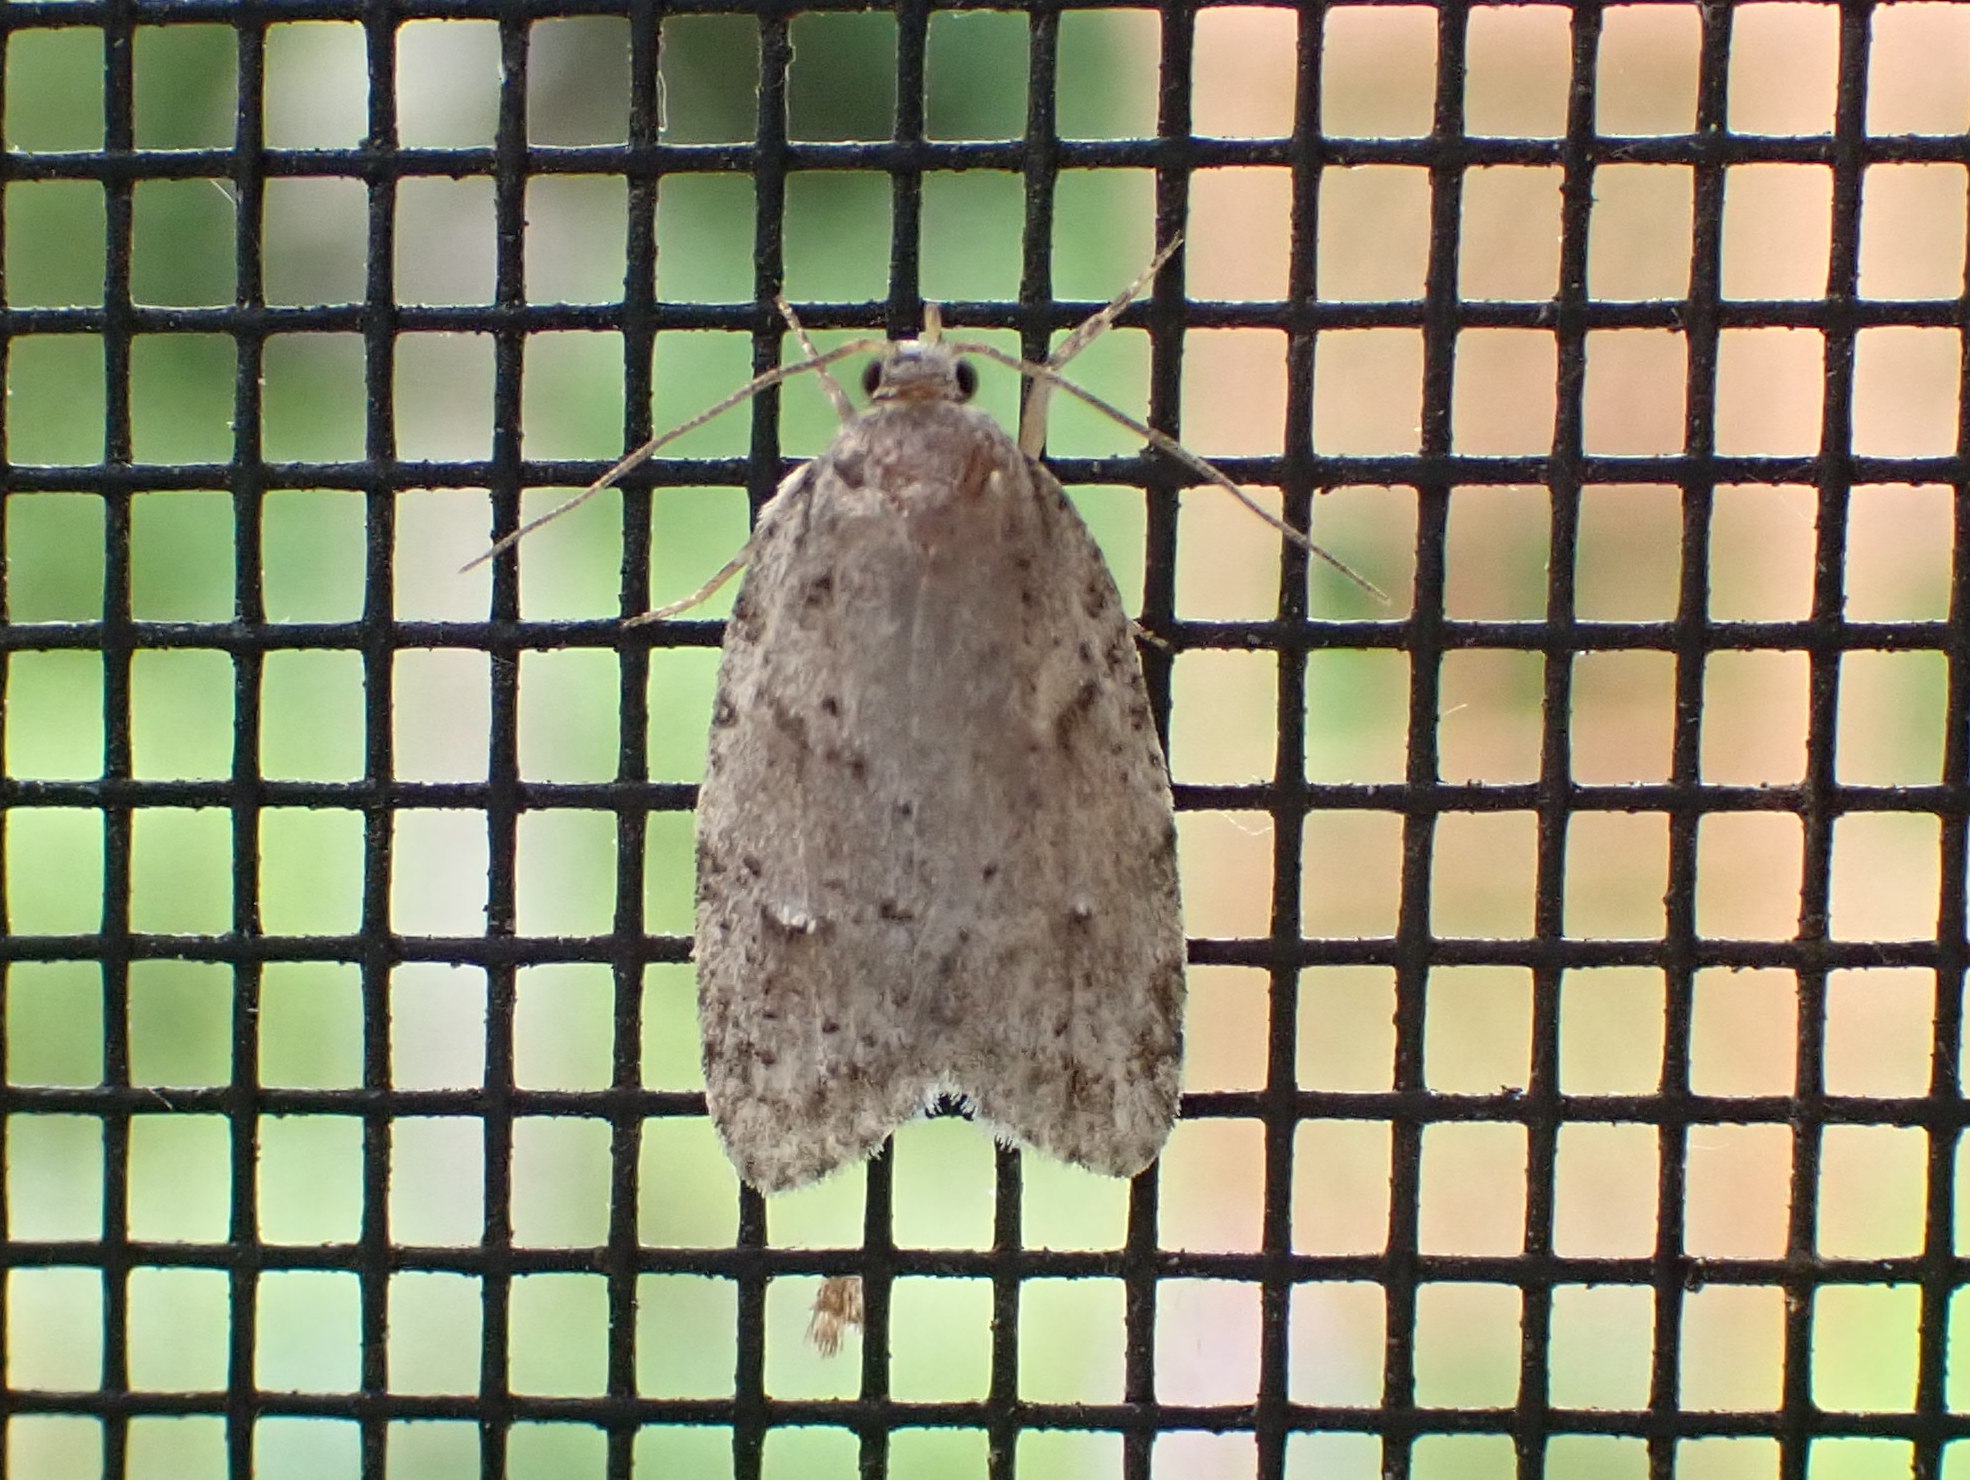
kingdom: Animalia
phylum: Arthropoda
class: Insecta
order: Lepidoptera
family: Depressariidae
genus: Bibarrambla
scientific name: Bibarrambla allenella
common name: Bog bibarrambla moth
